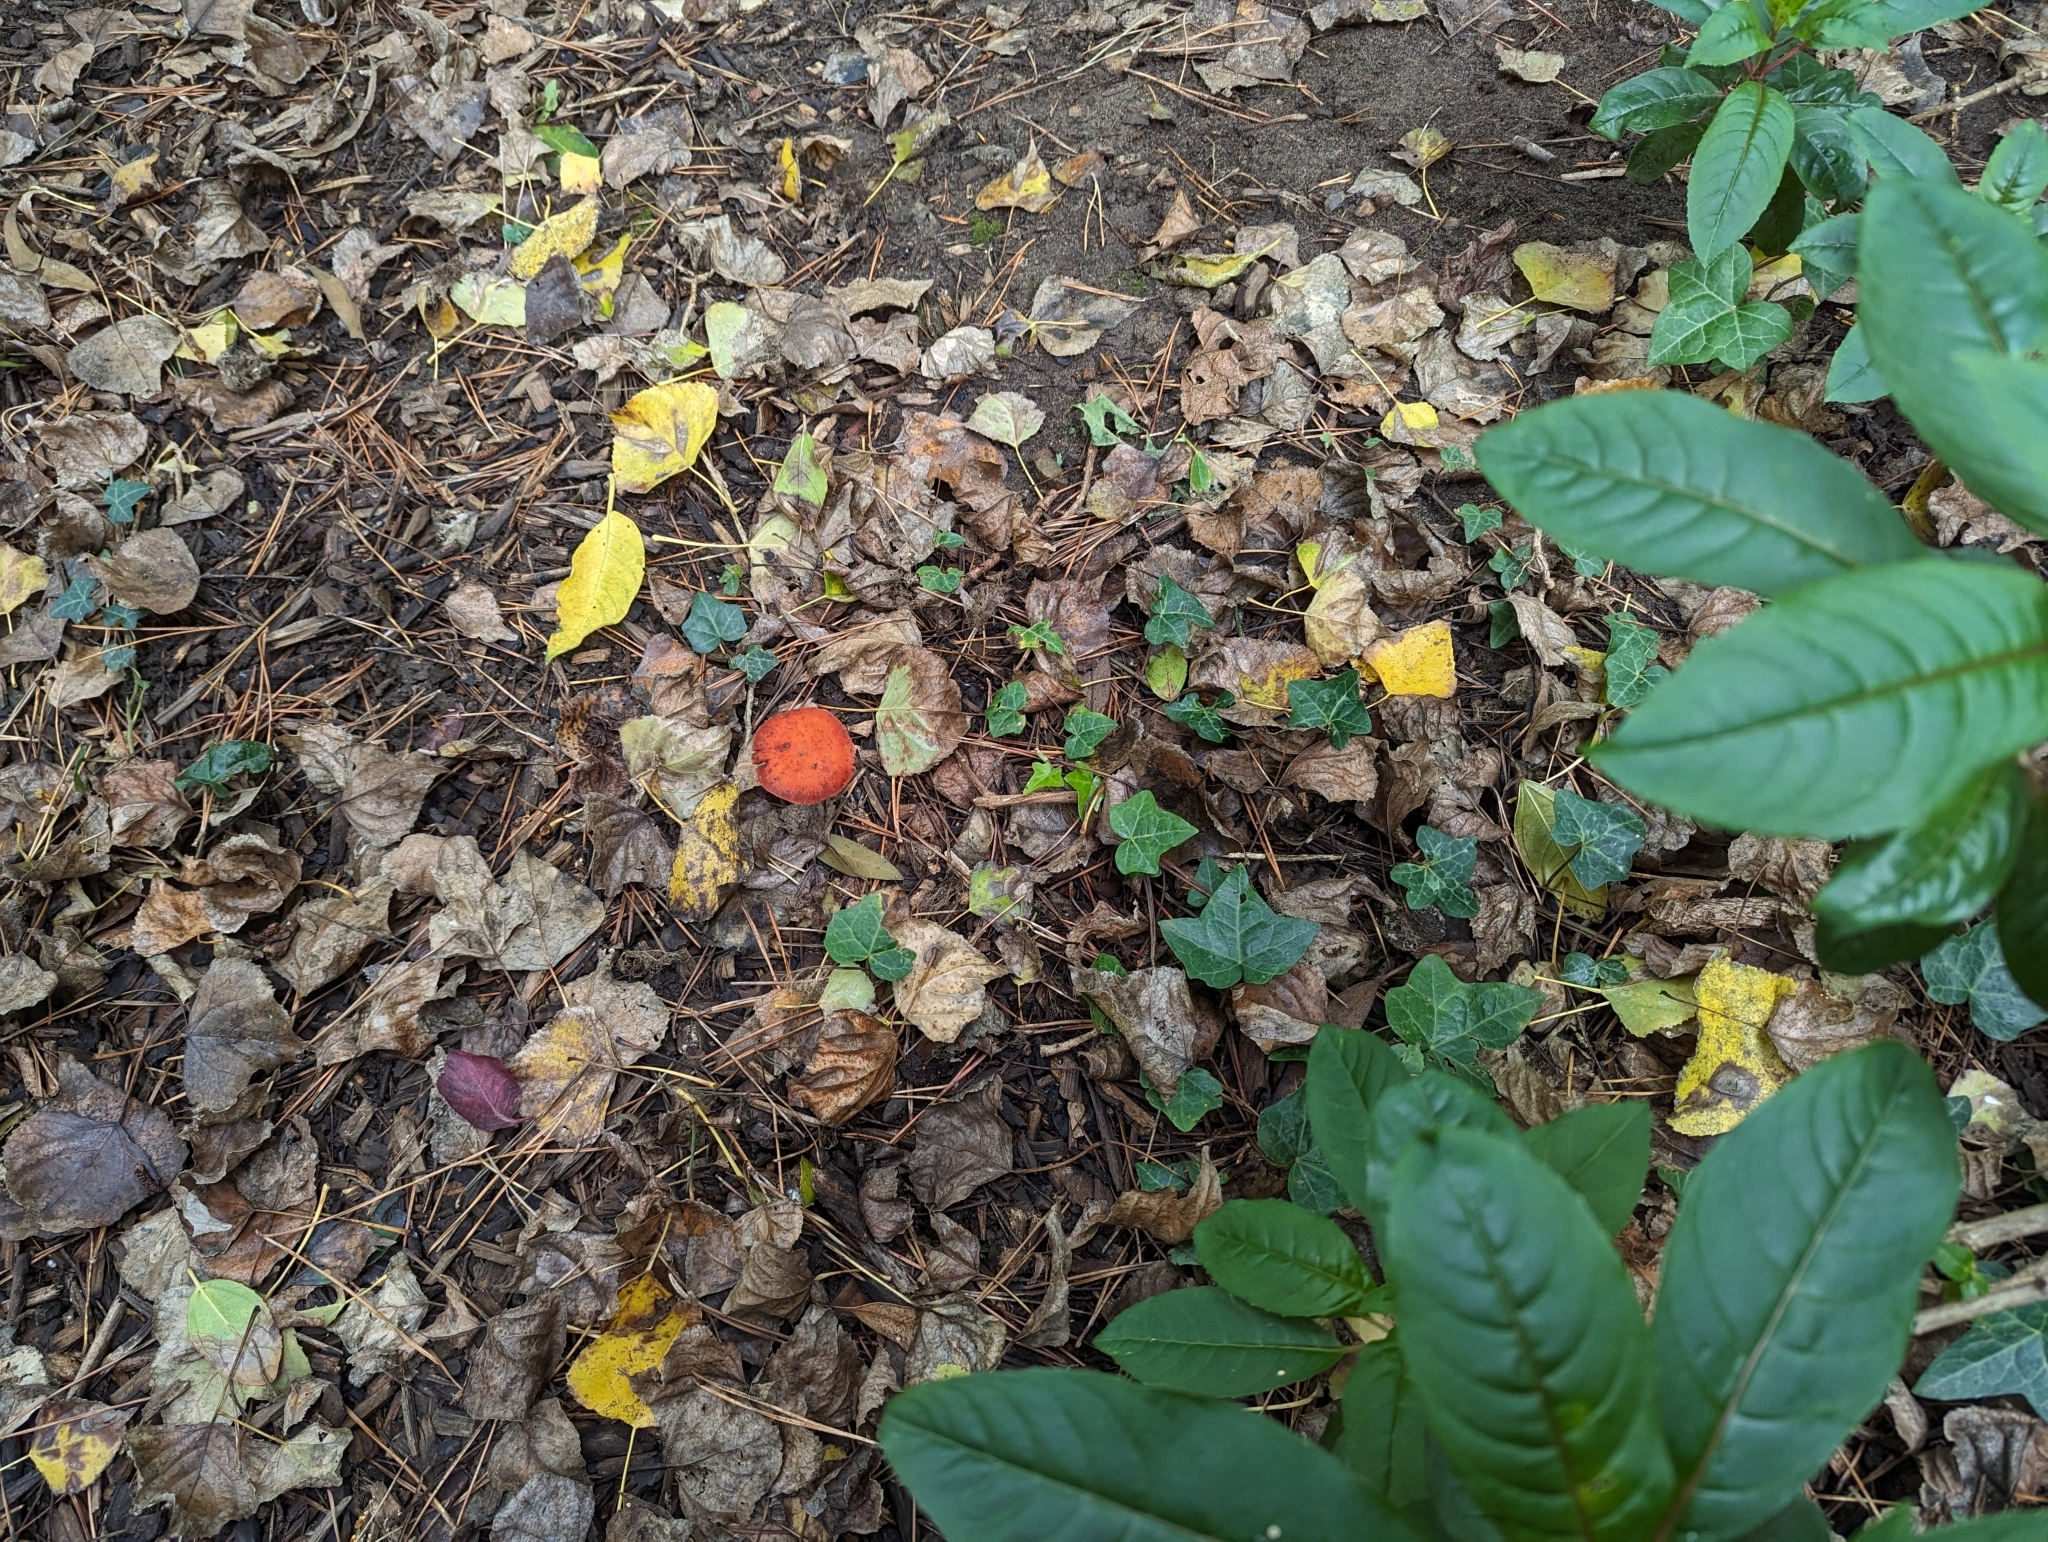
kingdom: Fungi
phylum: Basidiomycota
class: Agaricomycetes
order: Agaricales
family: Strophariaceae
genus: Leratiomyces
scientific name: Leratiomyces ceres
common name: Redlead roundhead
